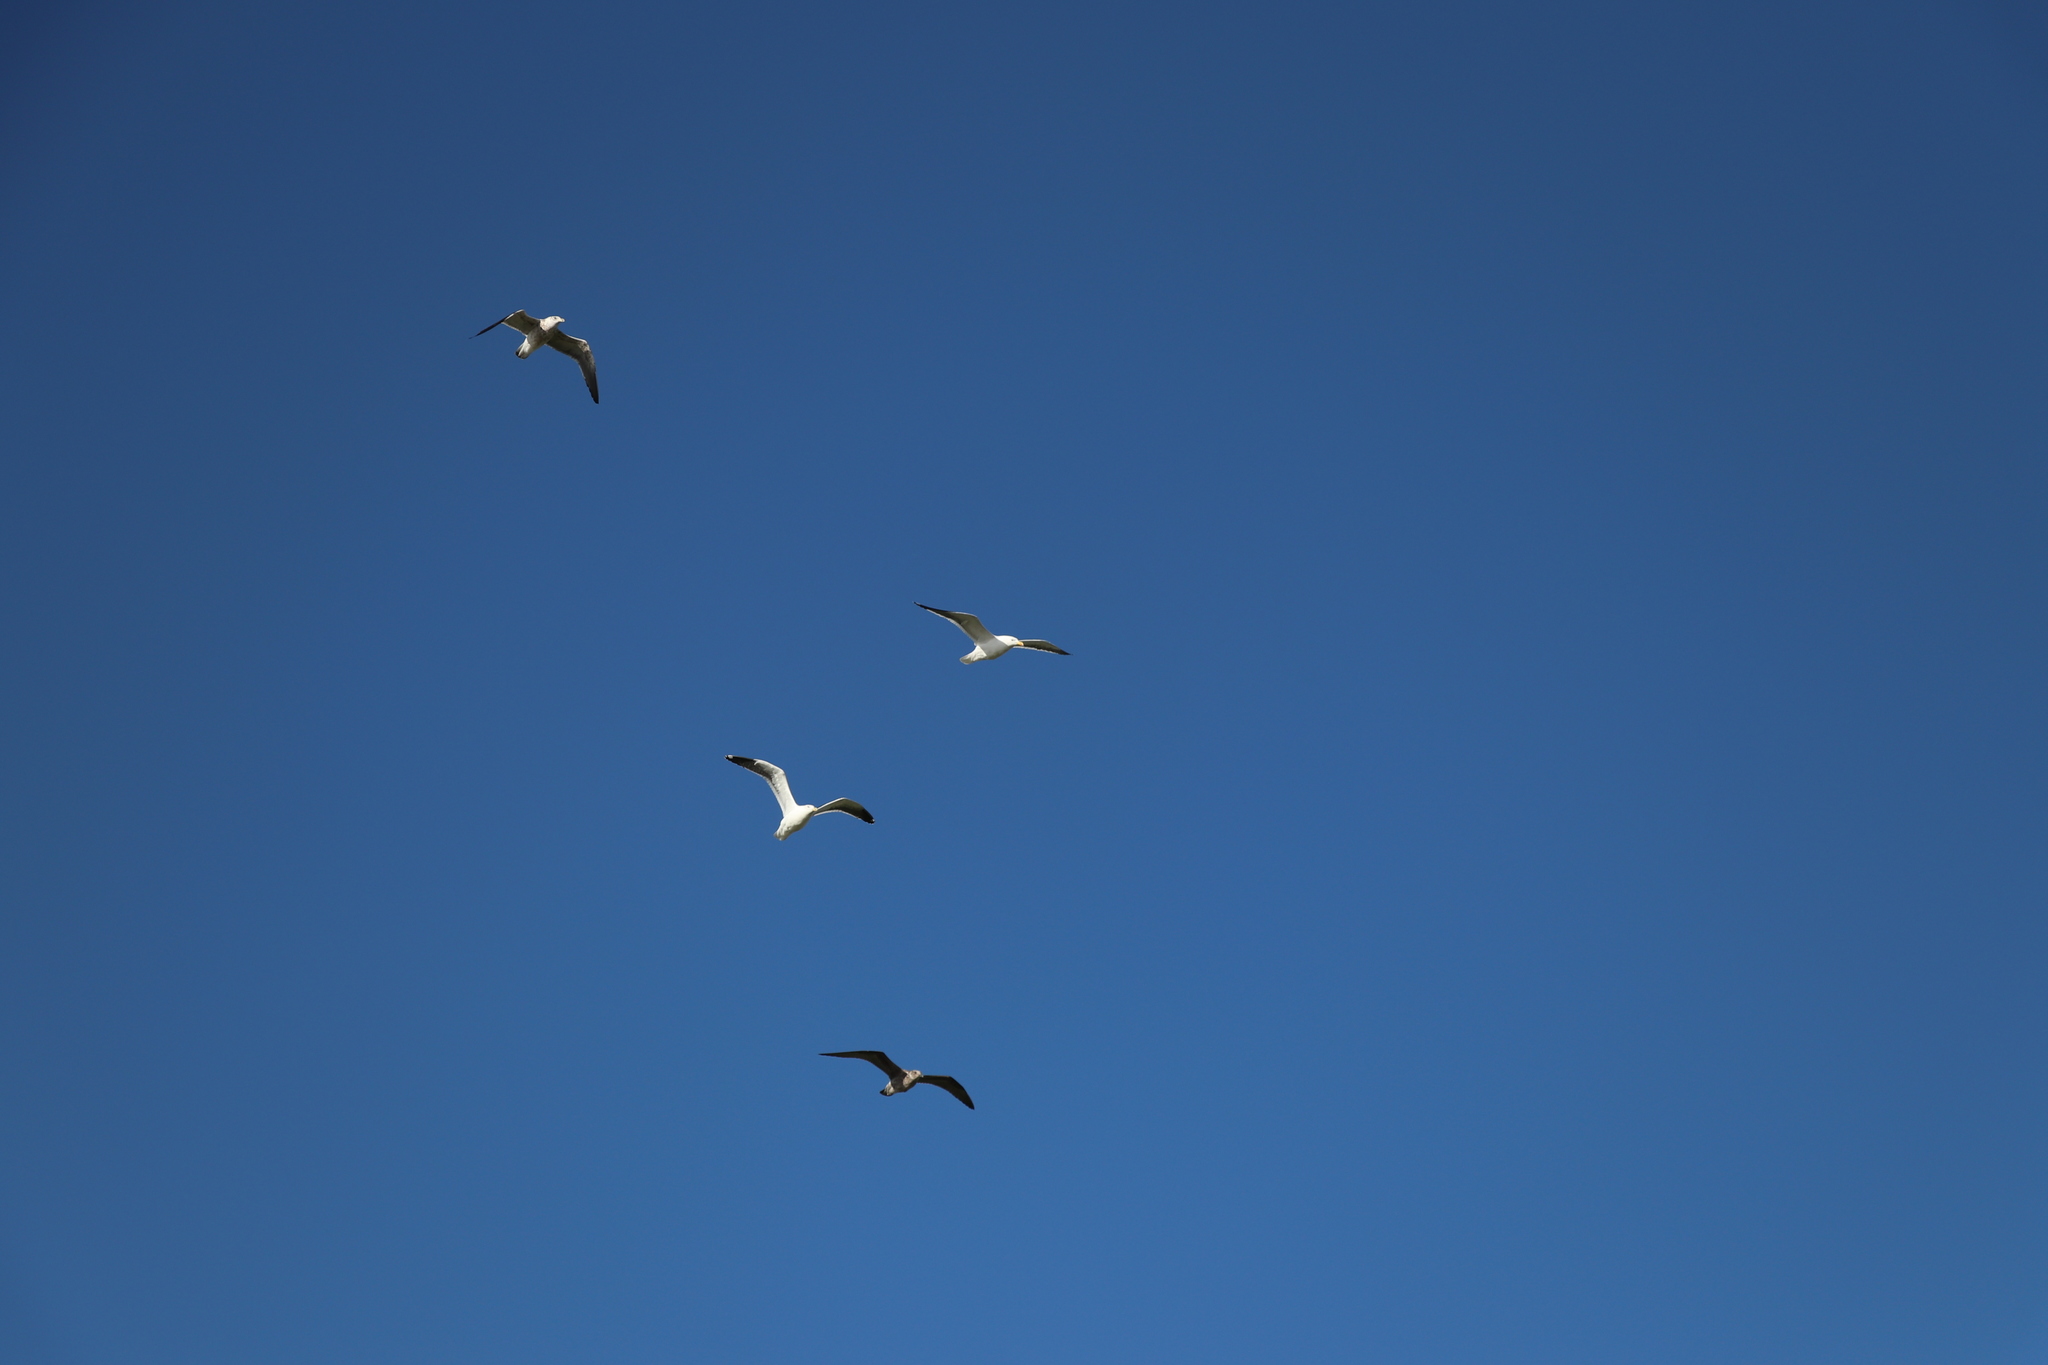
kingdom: Animalia
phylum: Chordata
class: Aves
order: Charadriiformes
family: Laridae
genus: Larus
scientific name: Larus dominicanus
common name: Kelp gull
